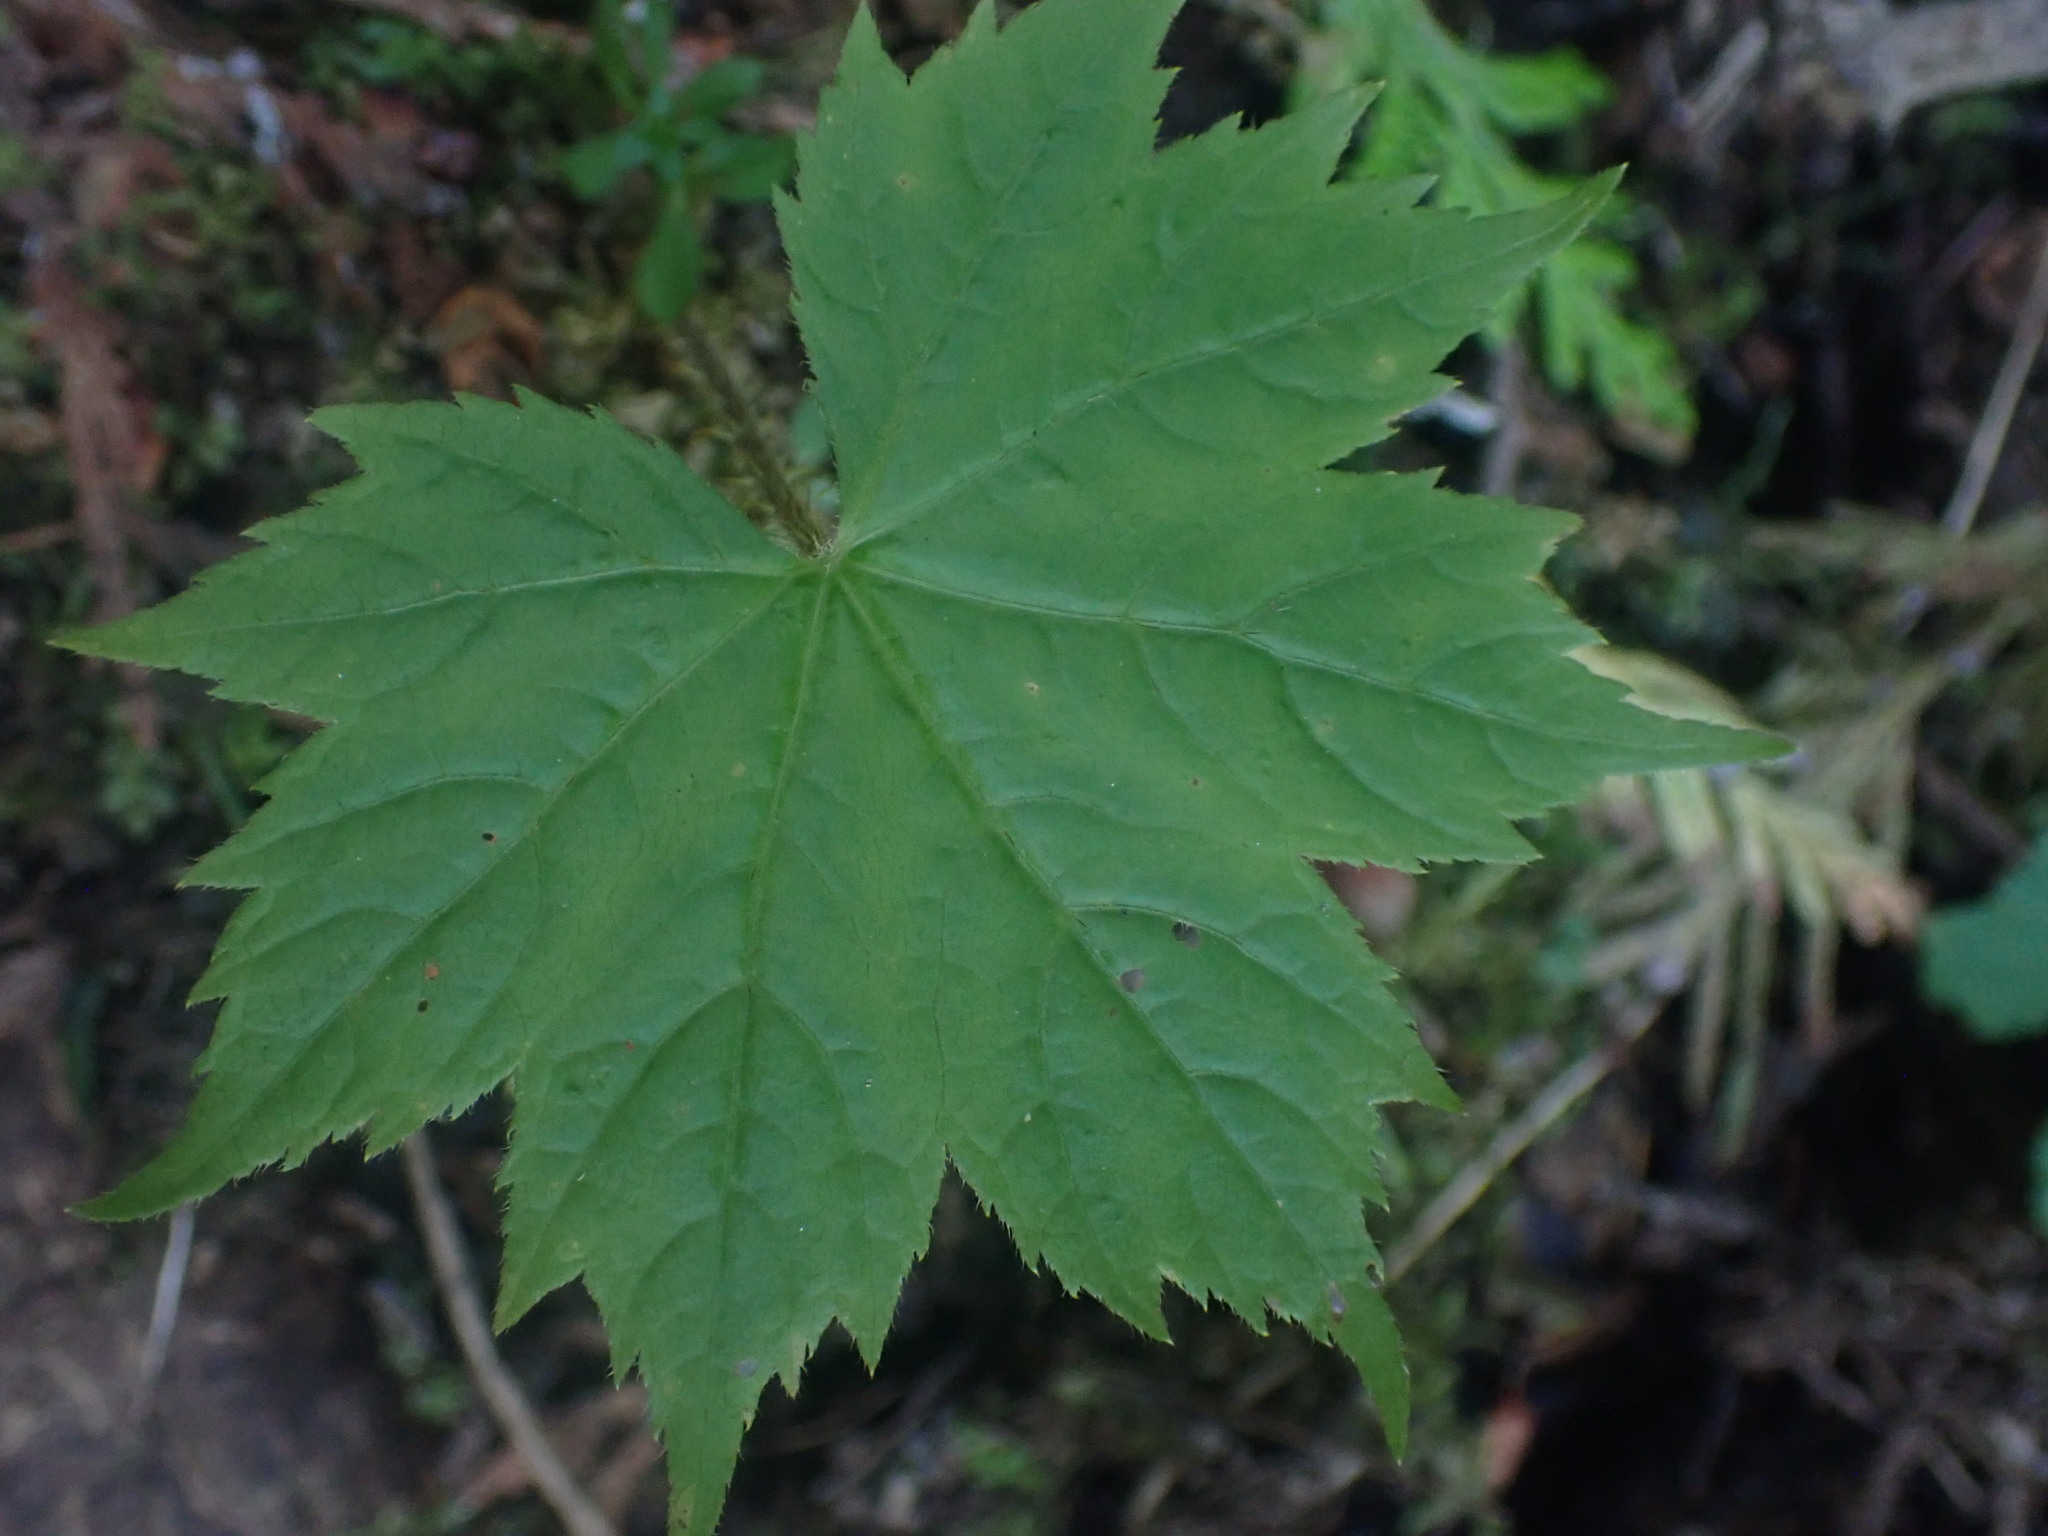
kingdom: Plantae
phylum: Tracheophyta
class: Magnoliopsida
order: Apiales
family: Araliaceae
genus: Oplopanax
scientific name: Oplopanax horridus
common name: Devil's walking-stick
